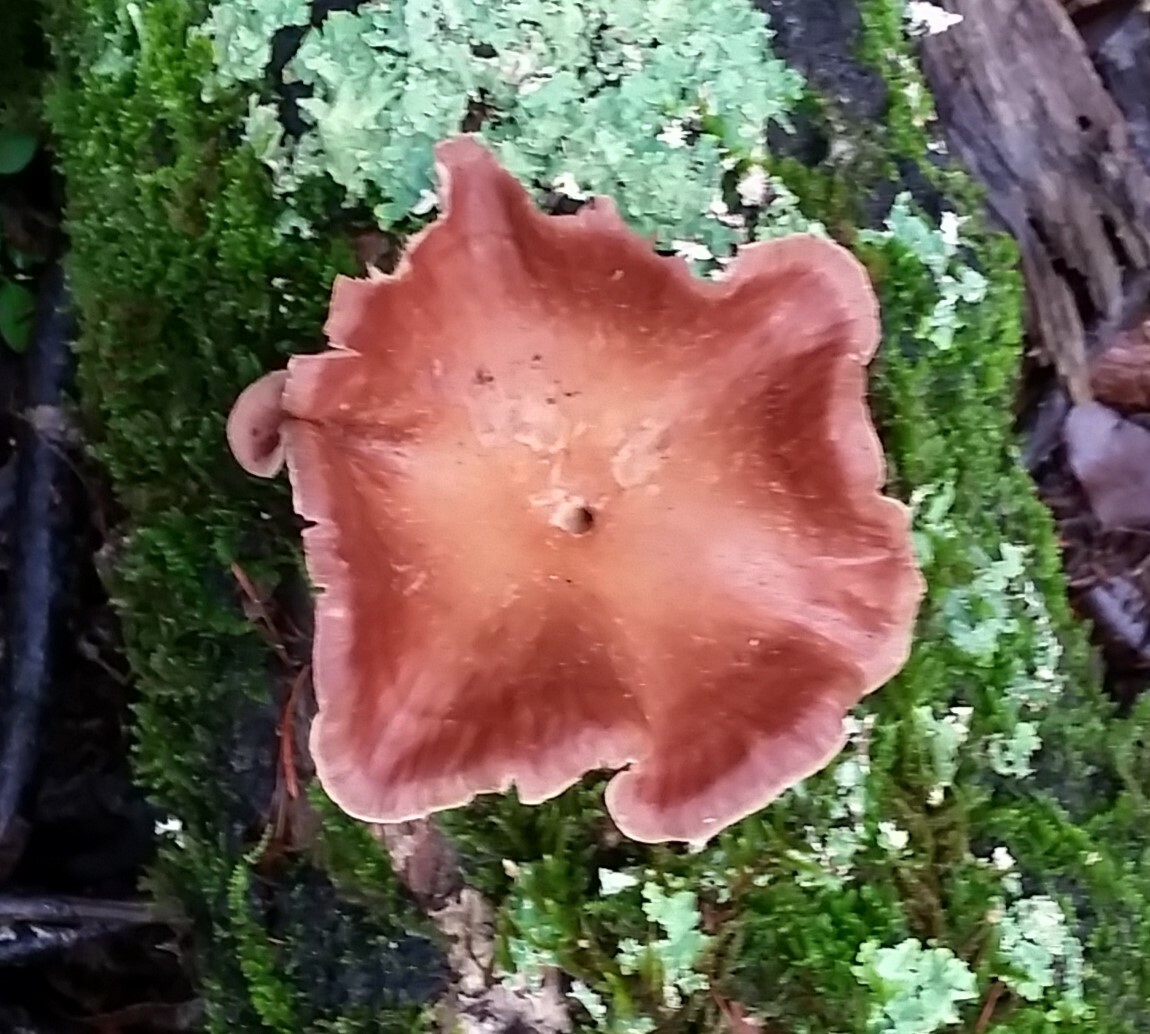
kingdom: Fungi
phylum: Basidiomycota
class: Agaricomycetes
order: Polyporales
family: Panaceae
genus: Panus
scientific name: Panus conchatus
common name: Lilac oysterling
